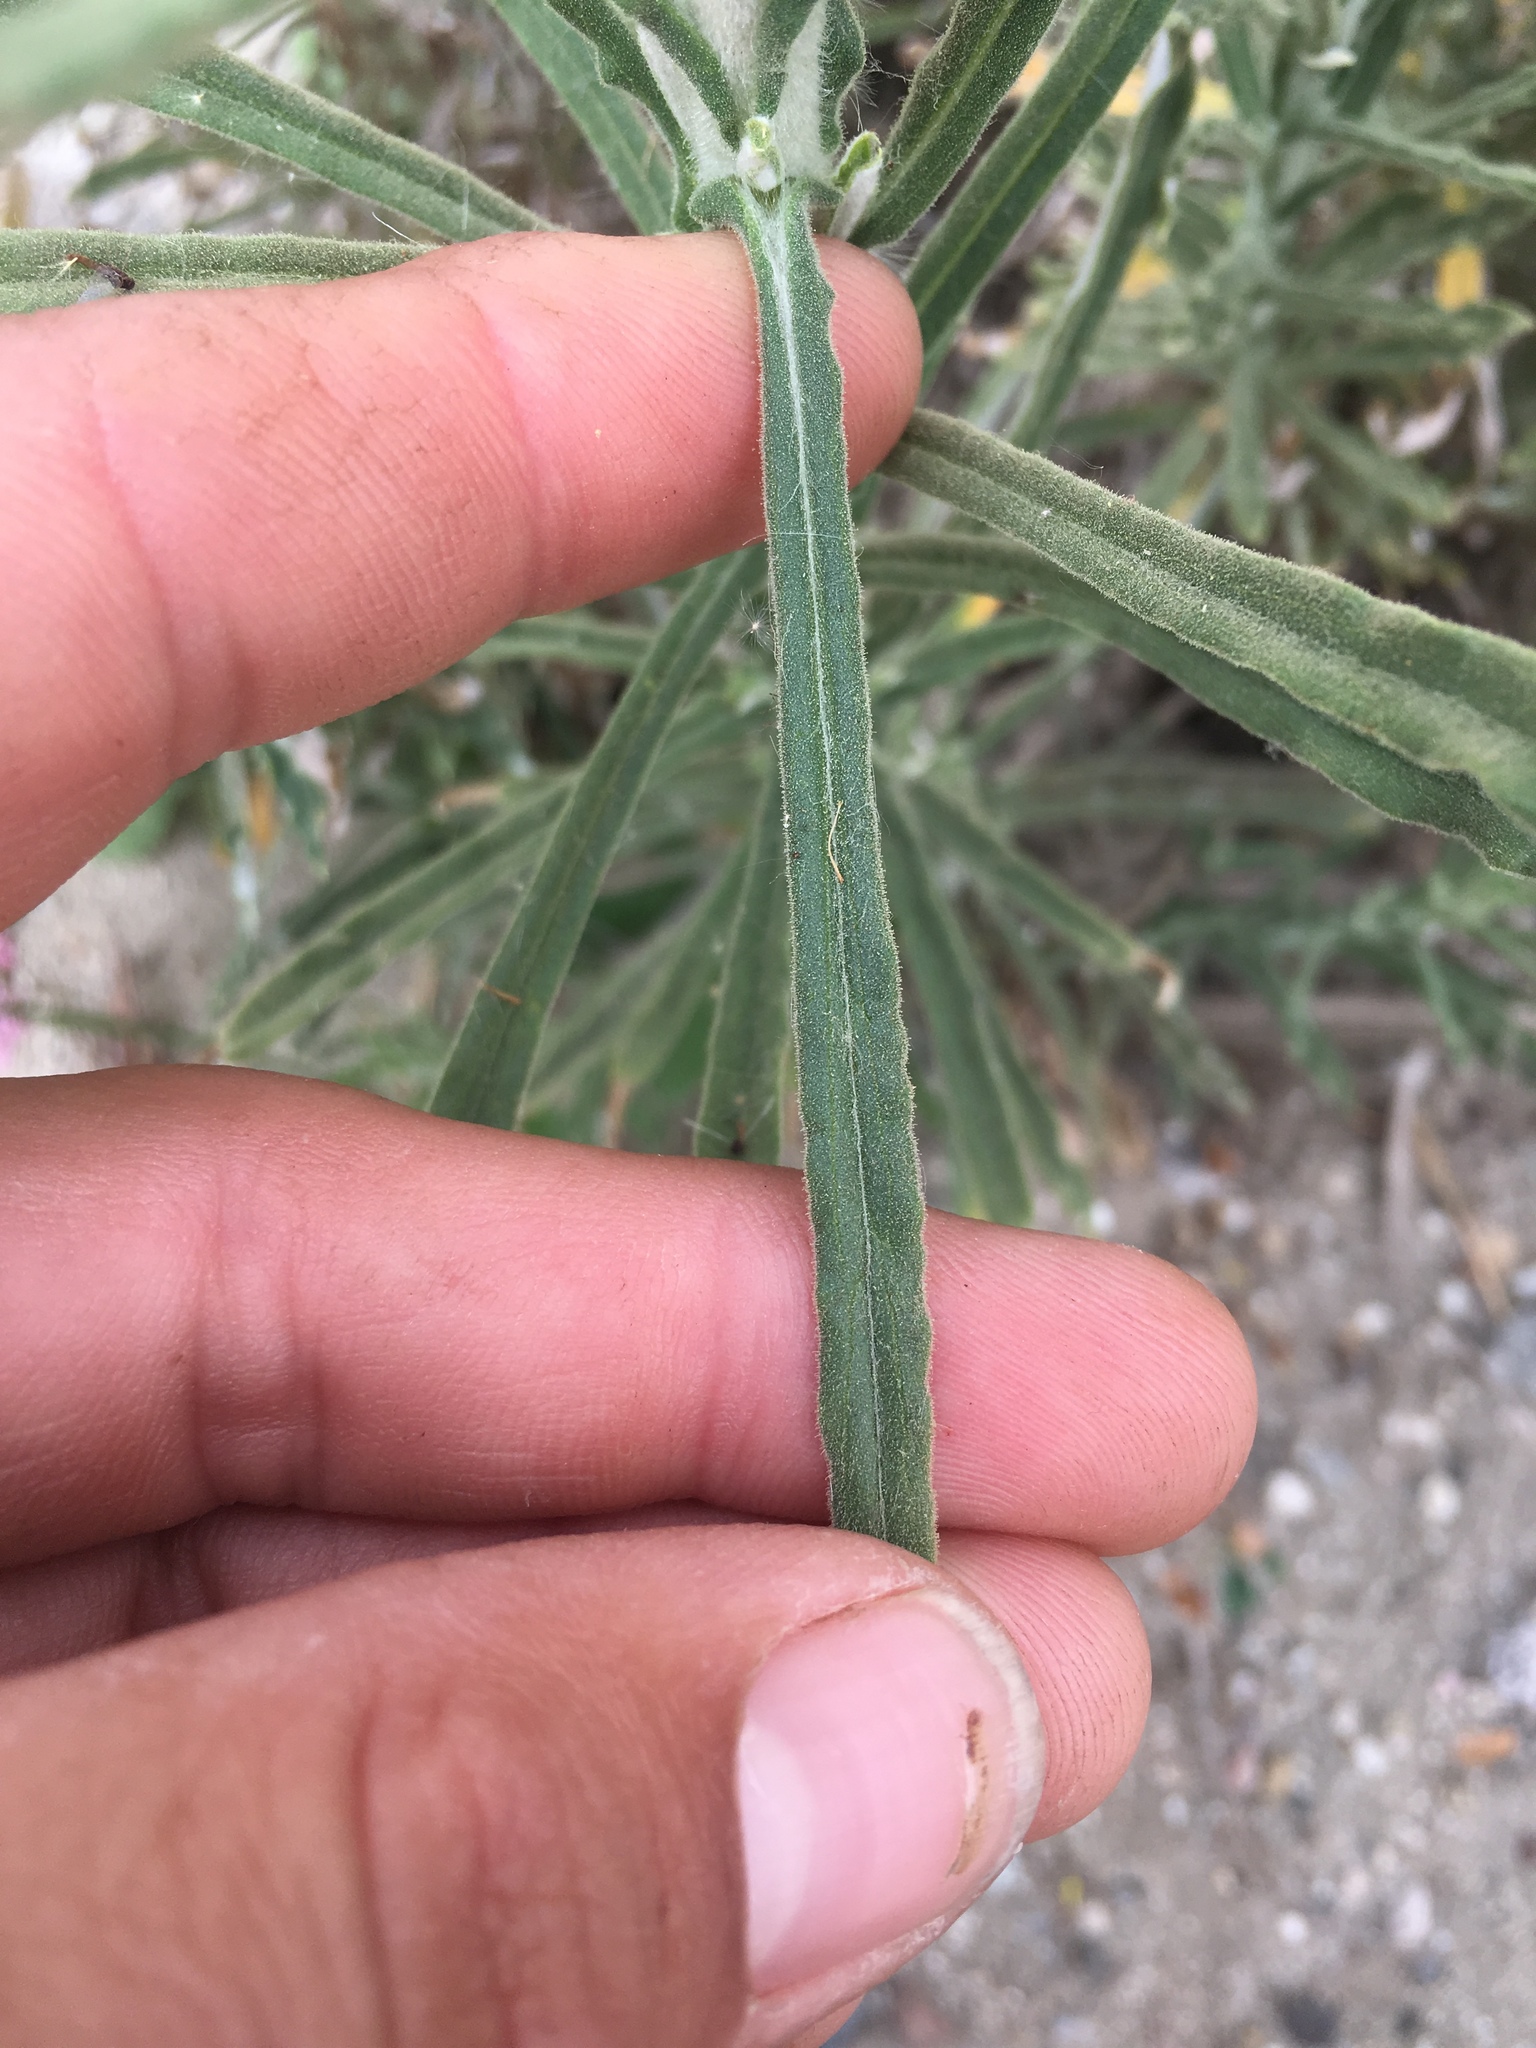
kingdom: Plantae
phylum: Tracheophyta
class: Magnoliopsida
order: Asterales
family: Asteraceae
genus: Pseudognaphalium
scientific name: Pseudognaphalium leucocephalum
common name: White cudweed
